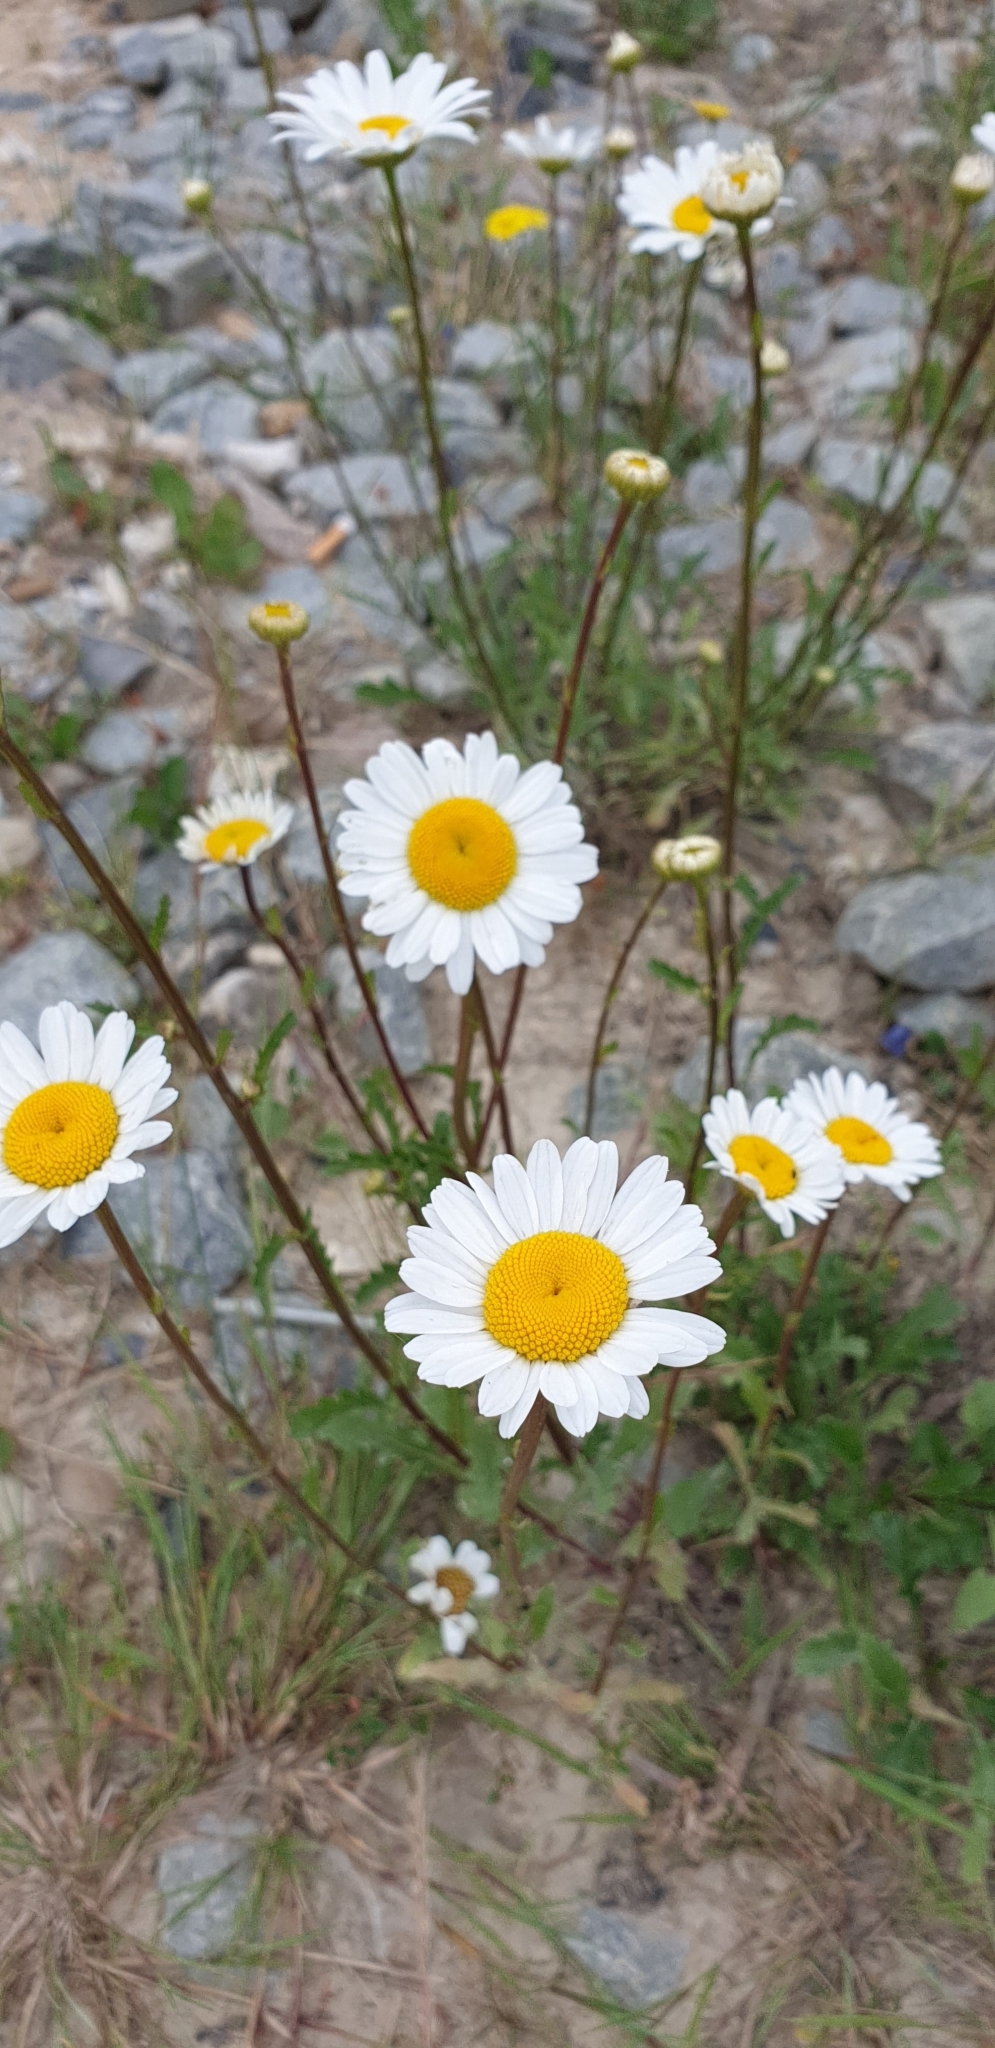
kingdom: Plantae
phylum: Tracheophyta
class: Magnoliopsida
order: Asterales
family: Asteraceae
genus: Leucanthemum
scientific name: Leucanthemum vulgare
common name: Oxeye daisy
